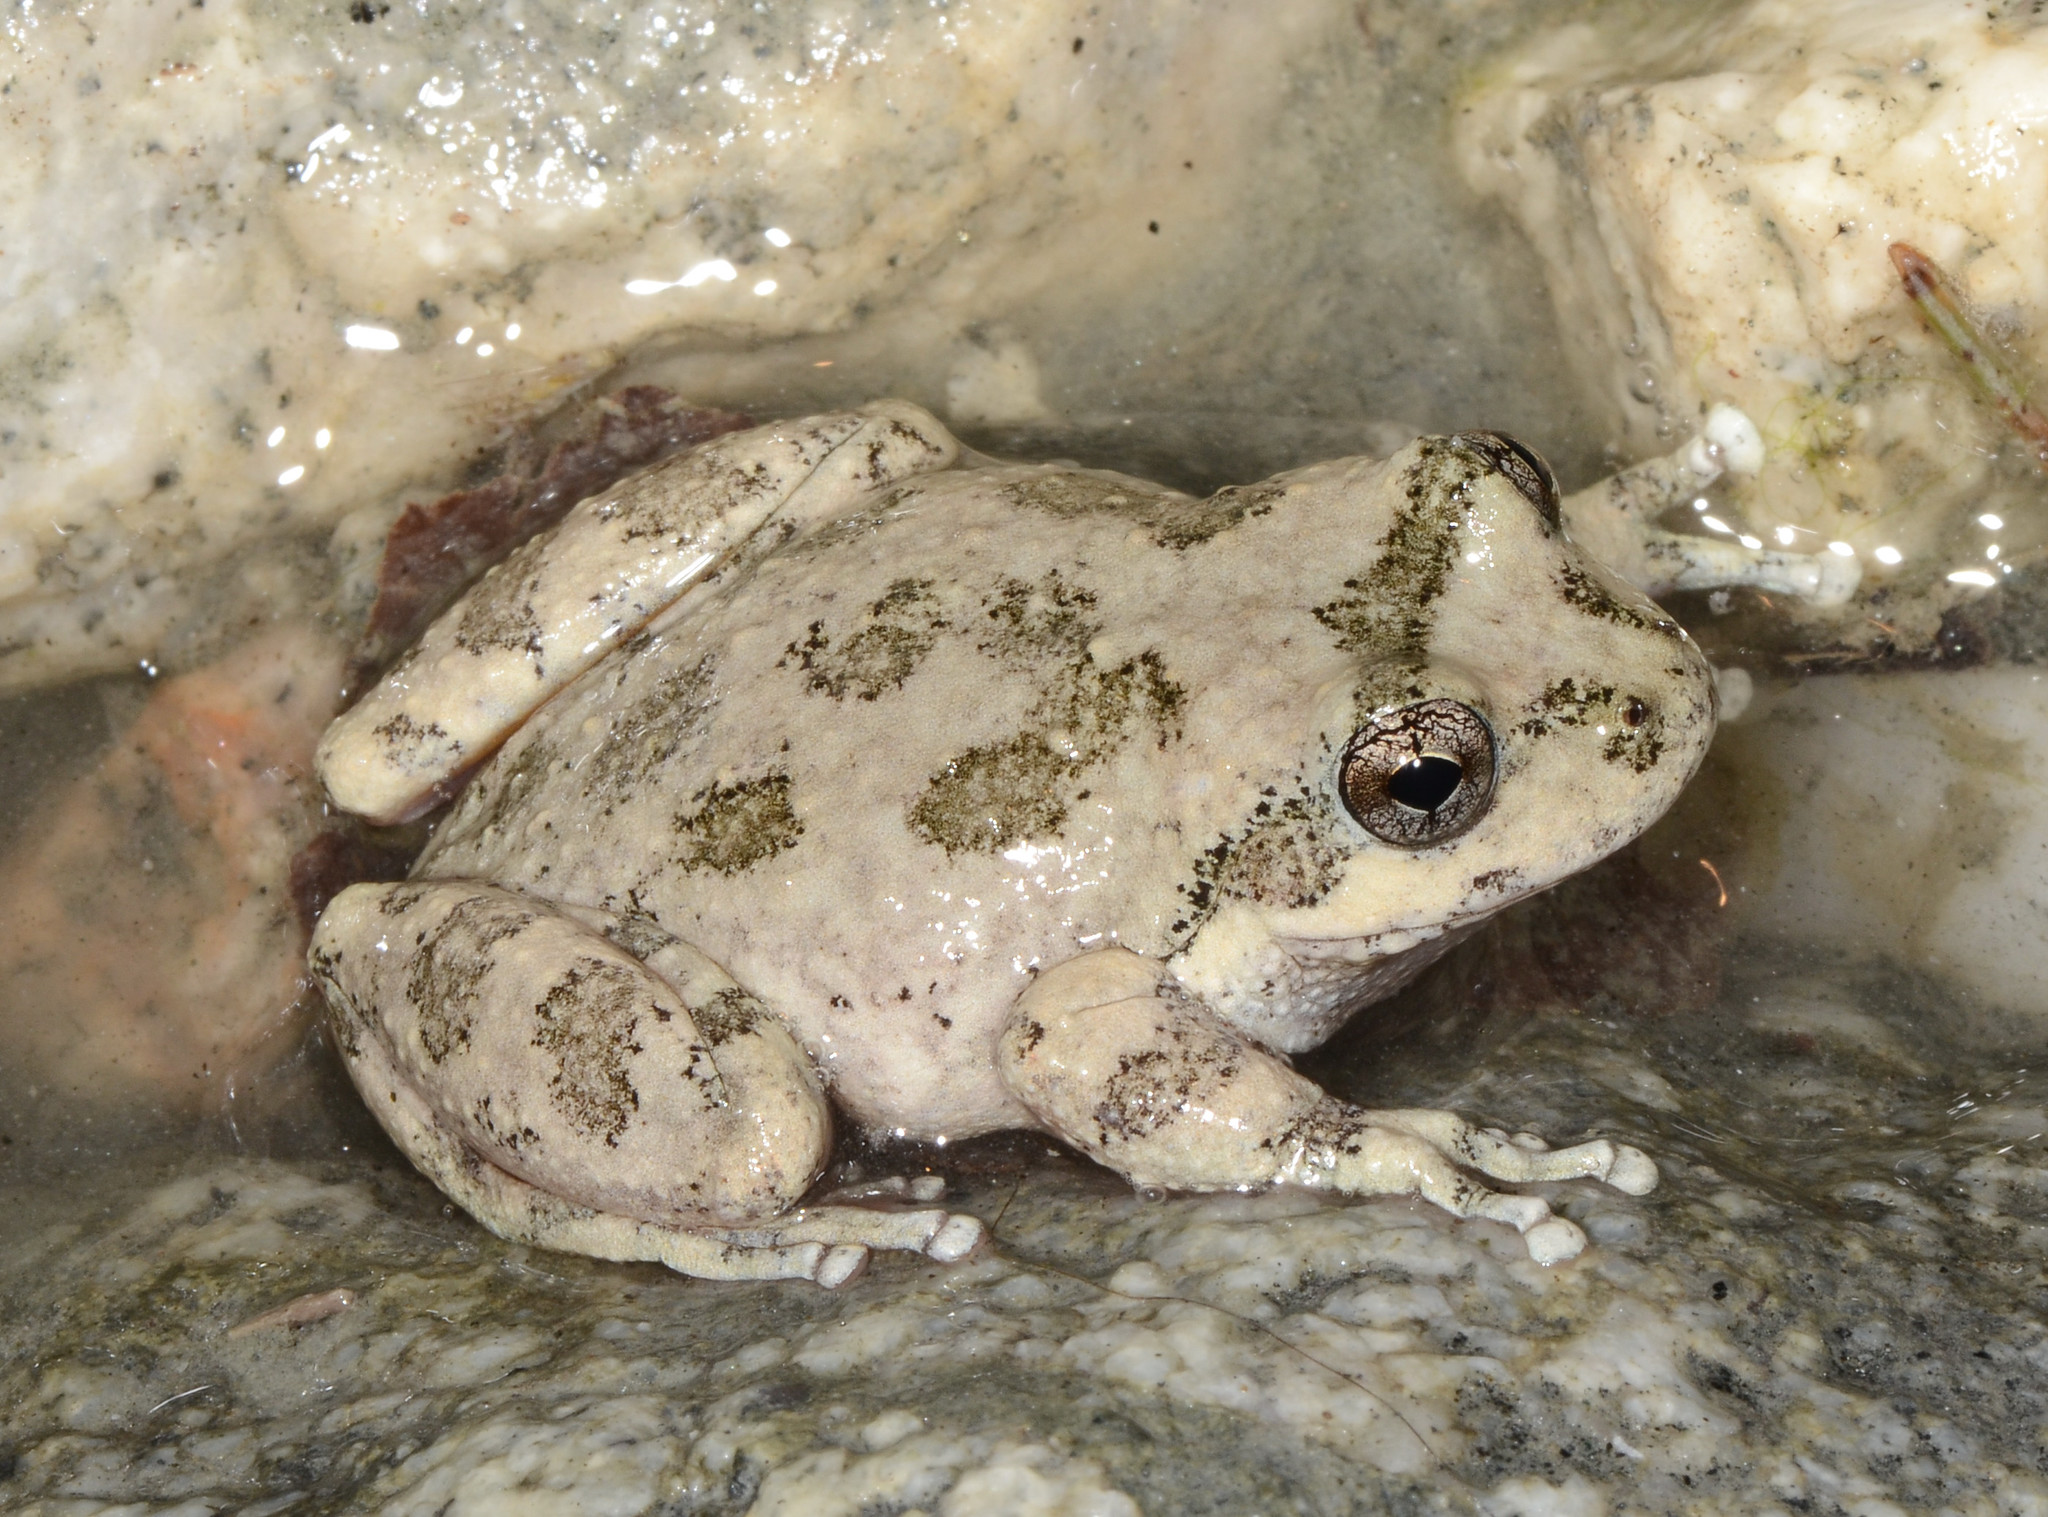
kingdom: Animalia
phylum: Chordata
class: Amphibia
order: Anura
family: Hylidae
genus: Pseudacris
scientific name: Pseudacris cadaverina
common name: California chorus frog
